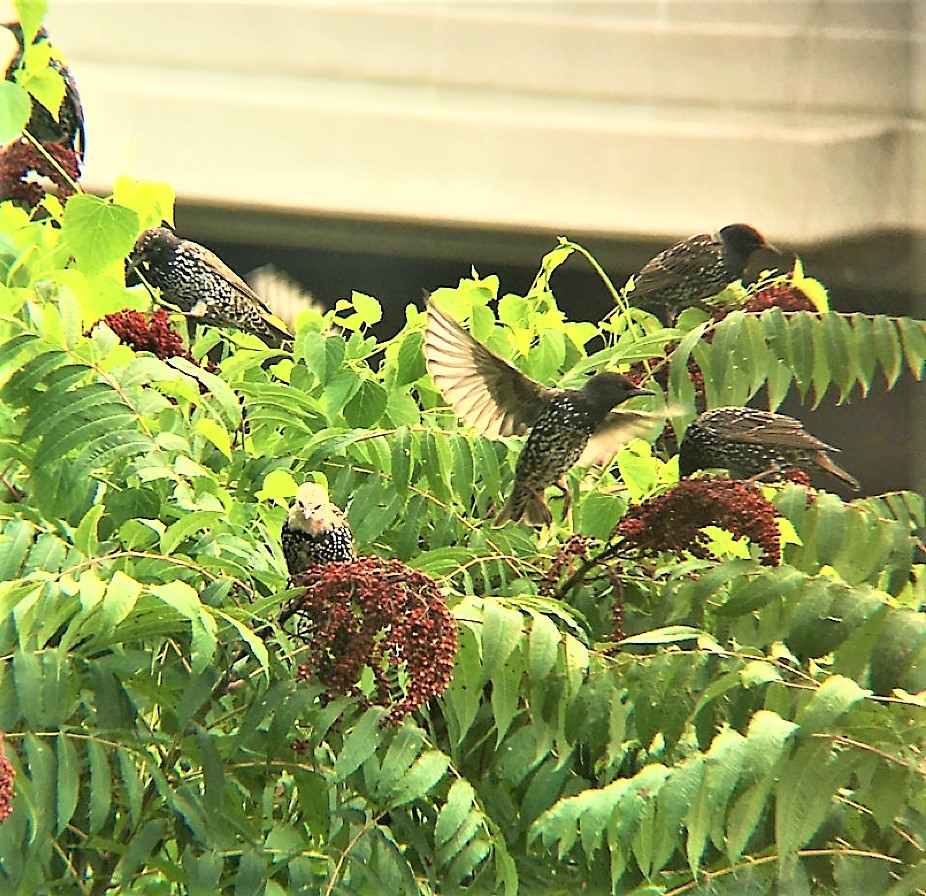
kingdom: Animalia
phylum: Chordata
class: Aves
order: Passeriformes
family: Sturnidae
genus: Sturnus
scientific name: Sturnus vulgaris
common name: Common starling
